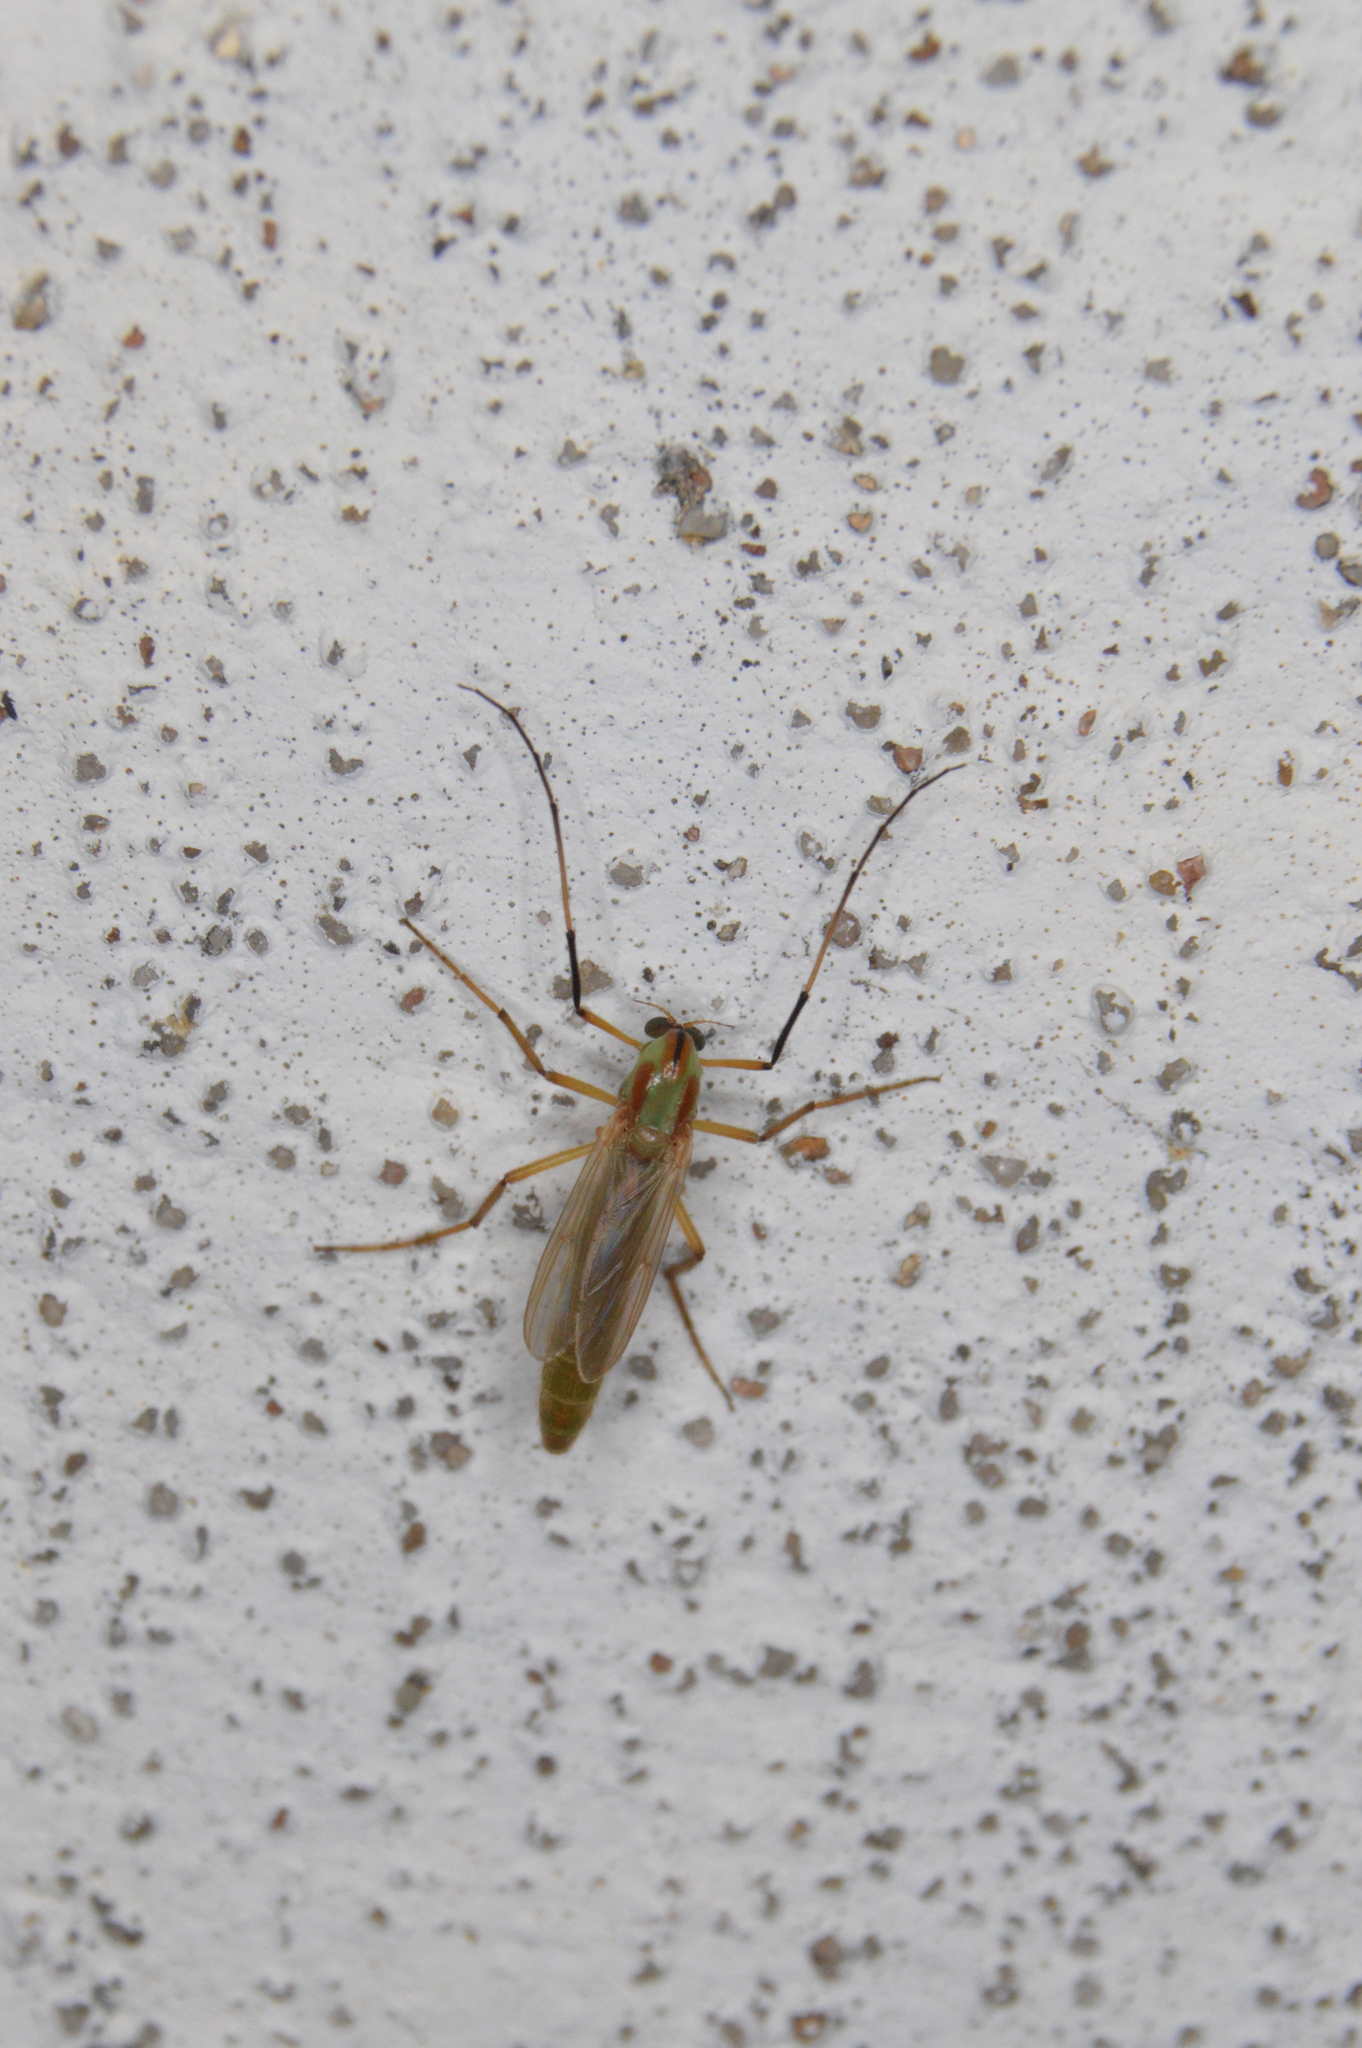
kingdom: Animalia
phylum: Arthropoda
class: Insecta
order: Diptera
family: Chironomidae
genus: Axarus
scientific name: Axarus
